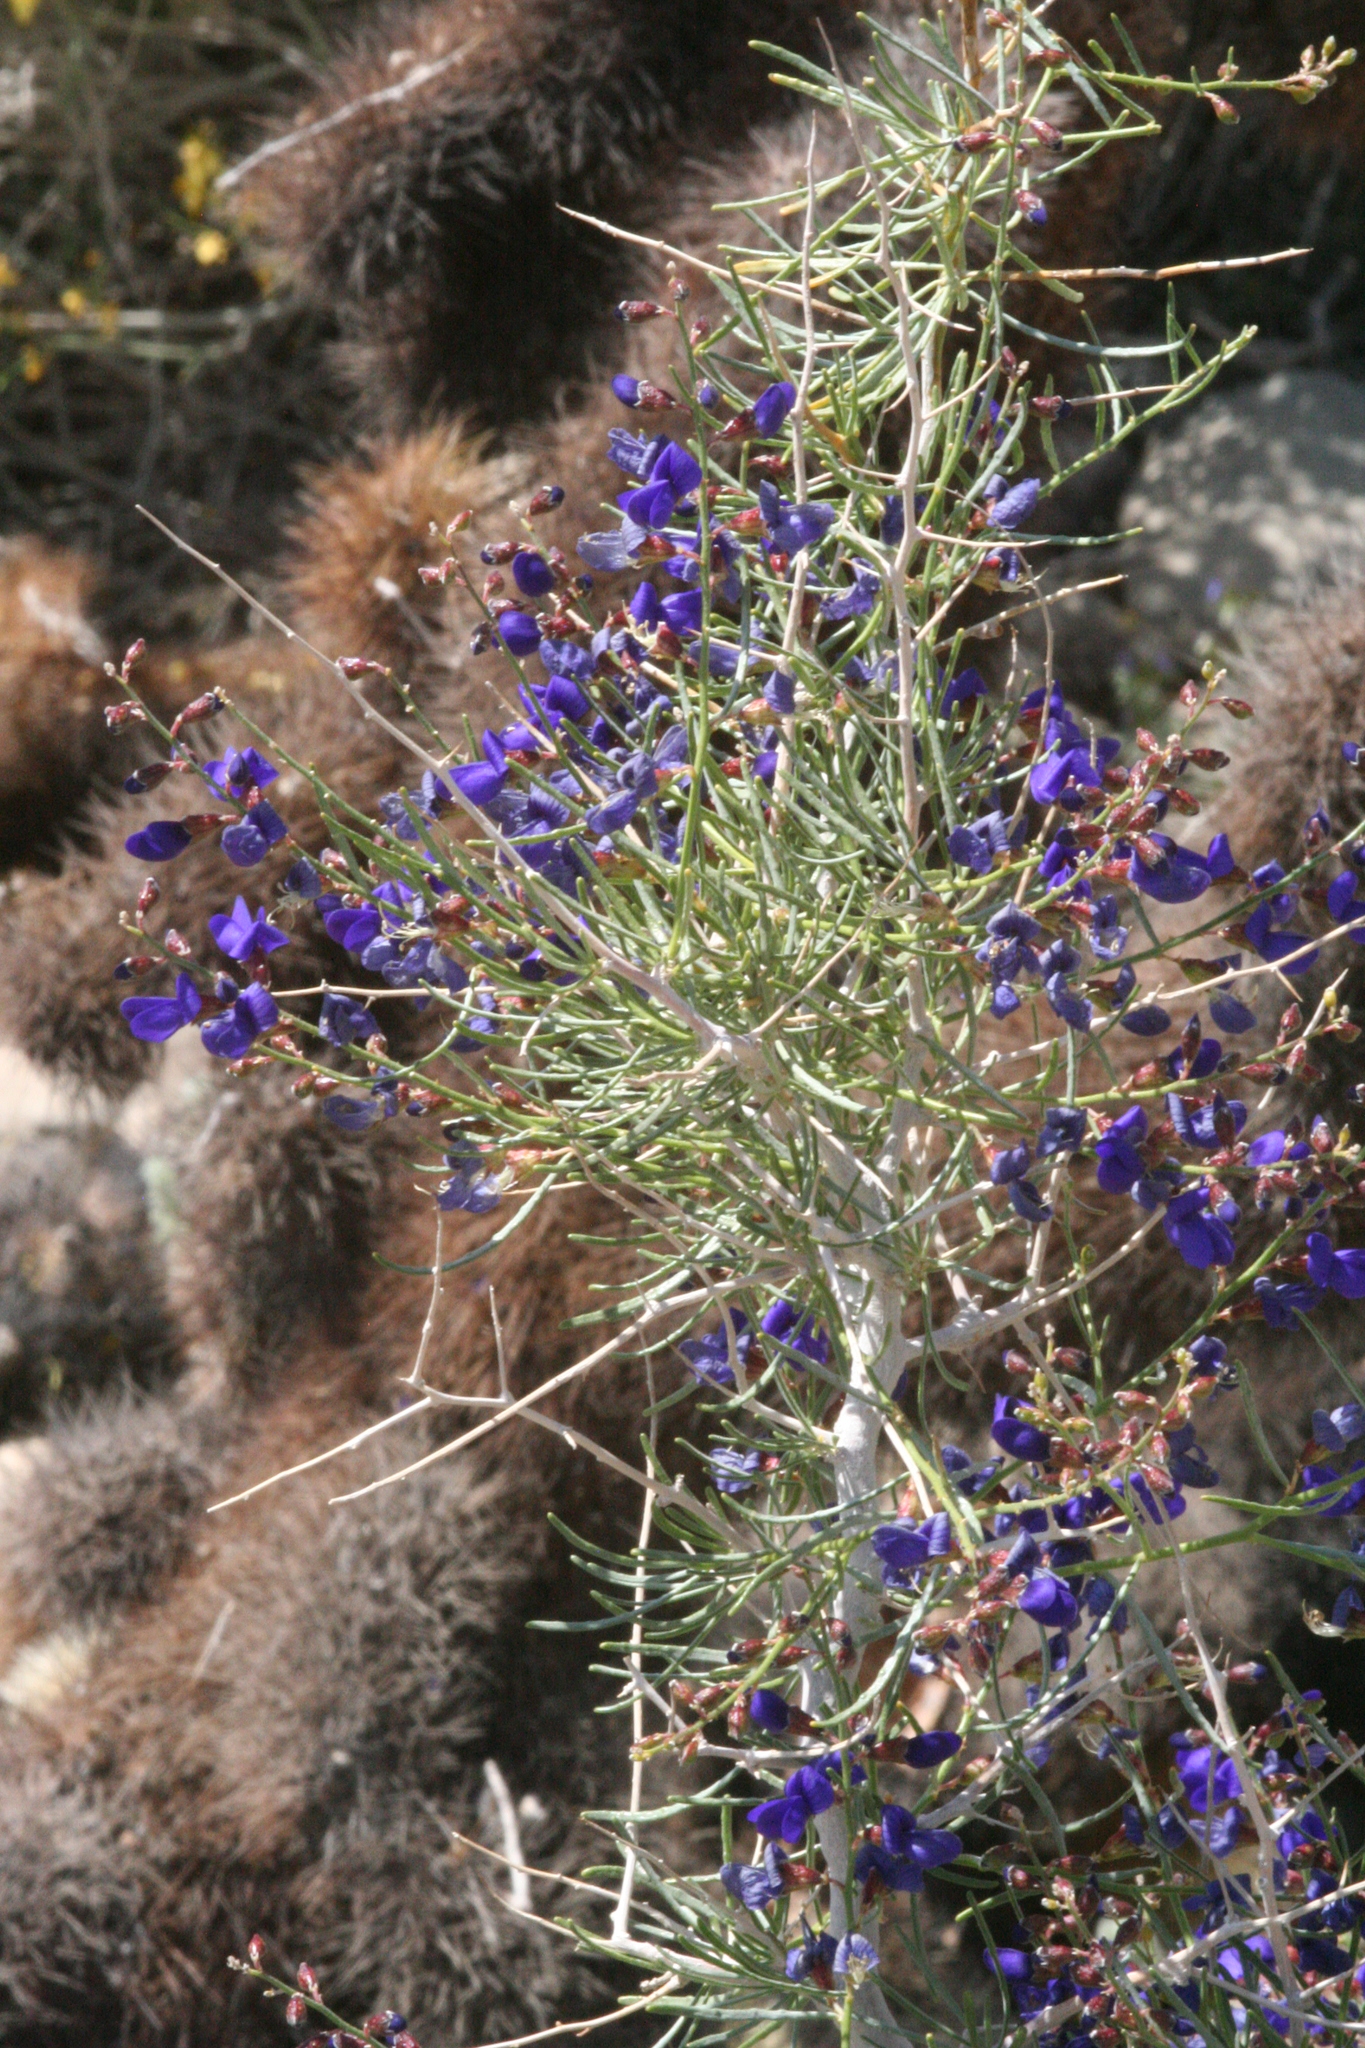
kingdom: Plantae
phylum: Tracheophyta
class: Magnoliopsida
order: Fabales
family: Fabaceae
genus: Psorothamnus
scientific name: Psorothamnus schottii
